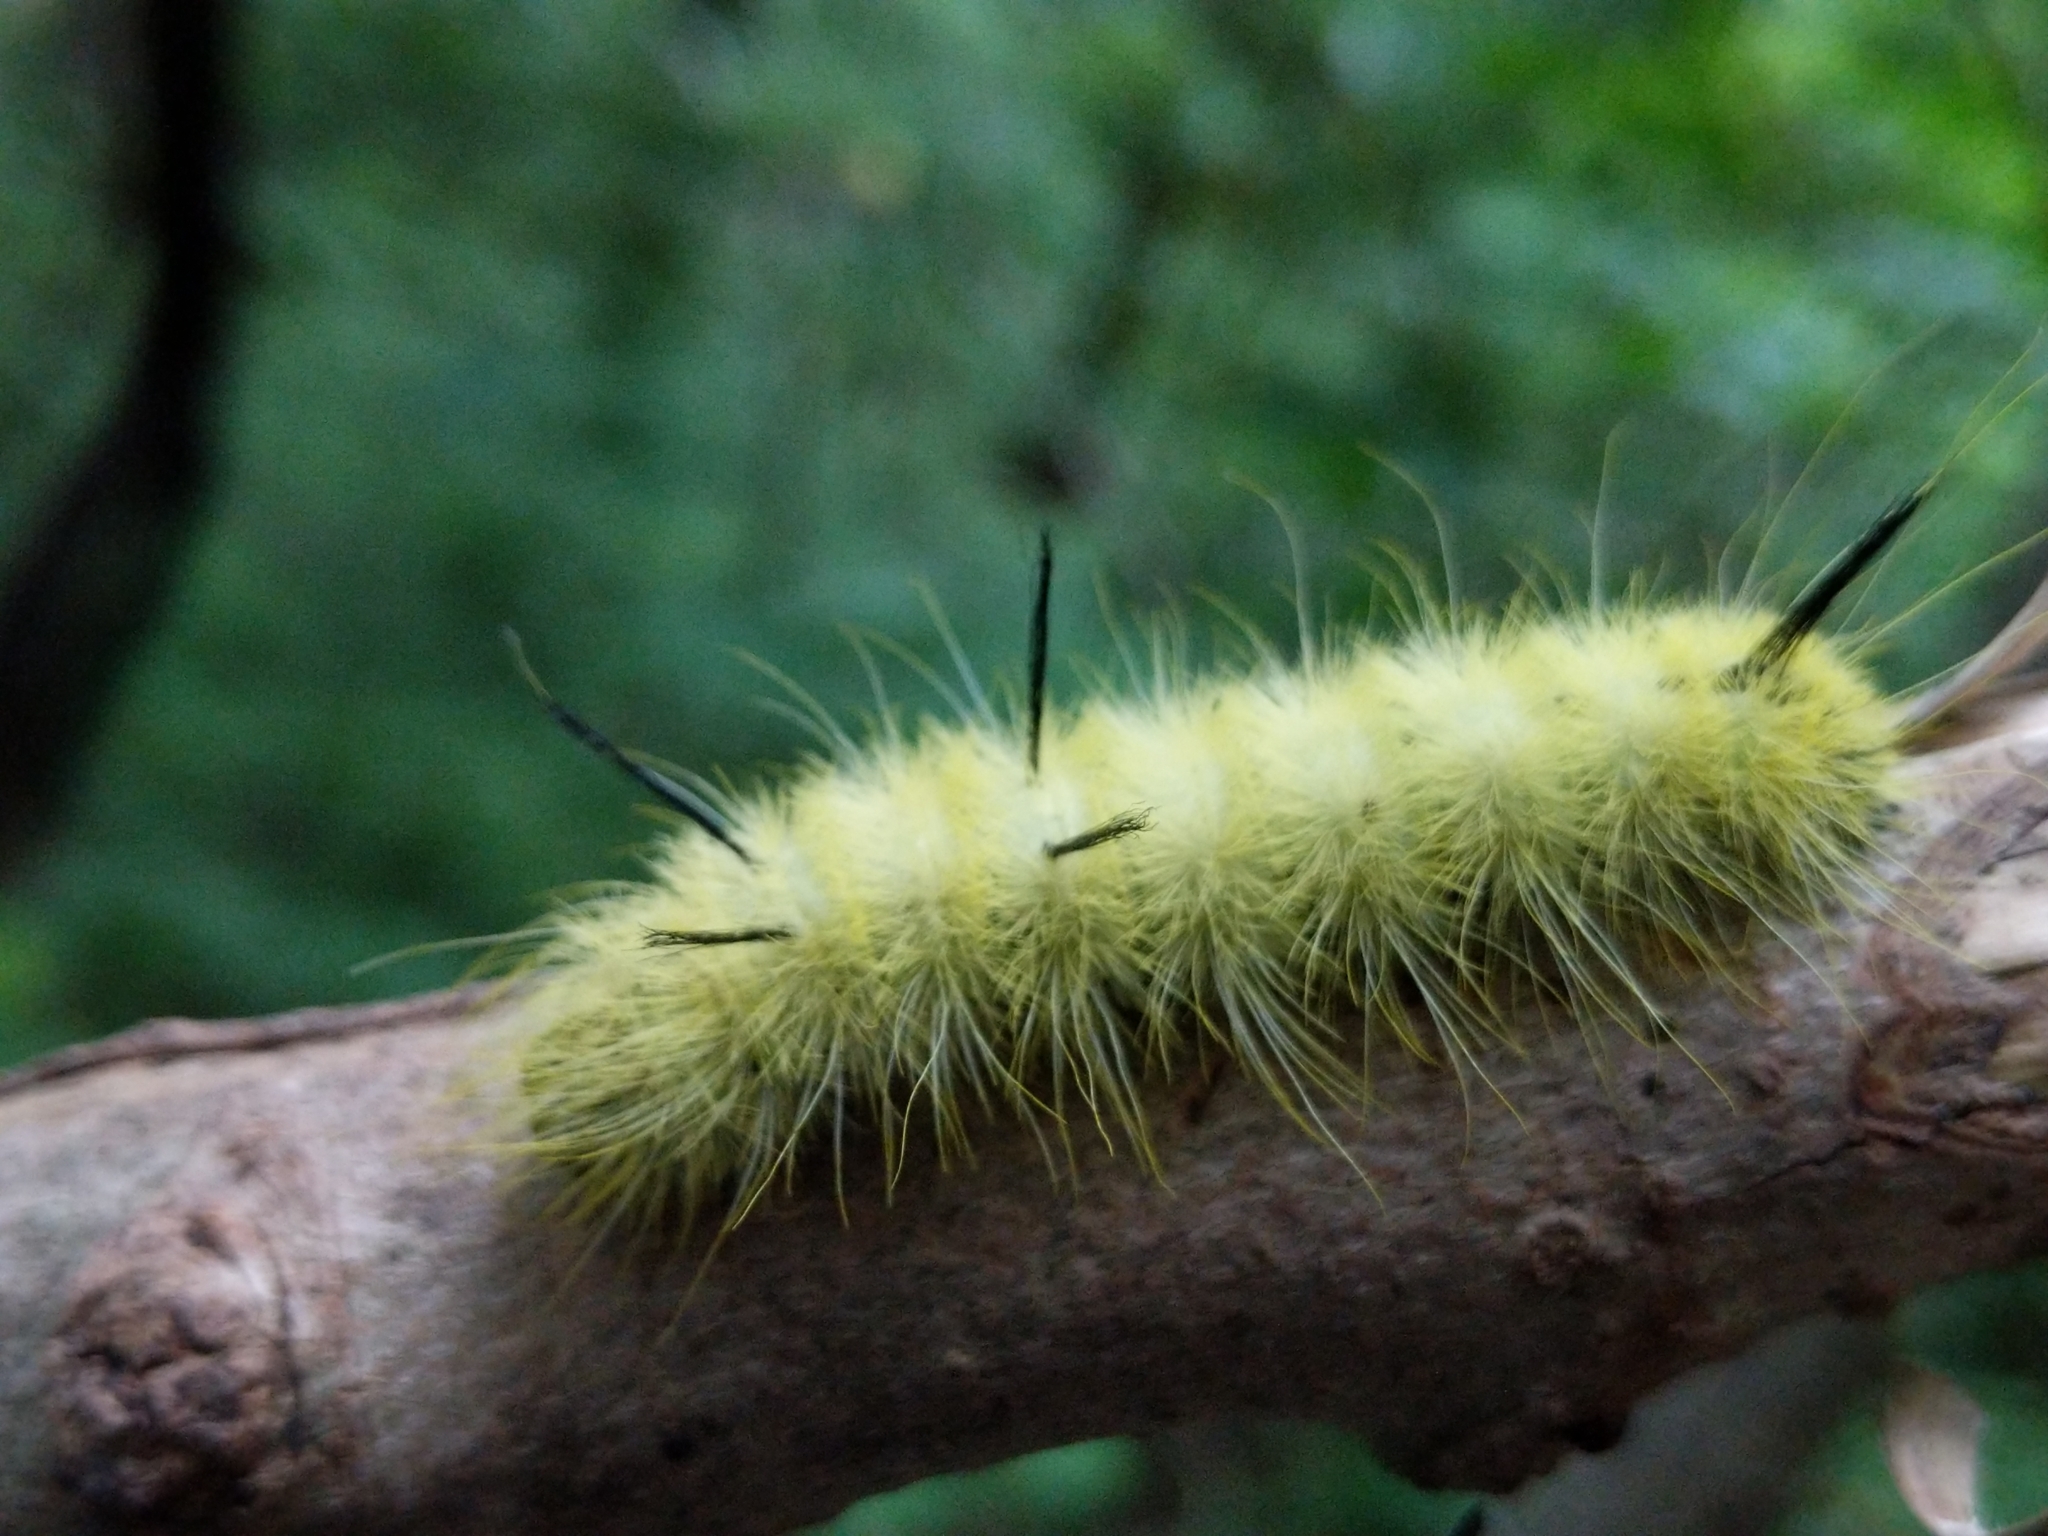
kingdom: Animalia
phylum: Arthropoda
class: Insecta
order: Lepidoptera
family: Noctuidae
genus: Acronicta
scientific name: Acronicta americana
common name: American dagger
